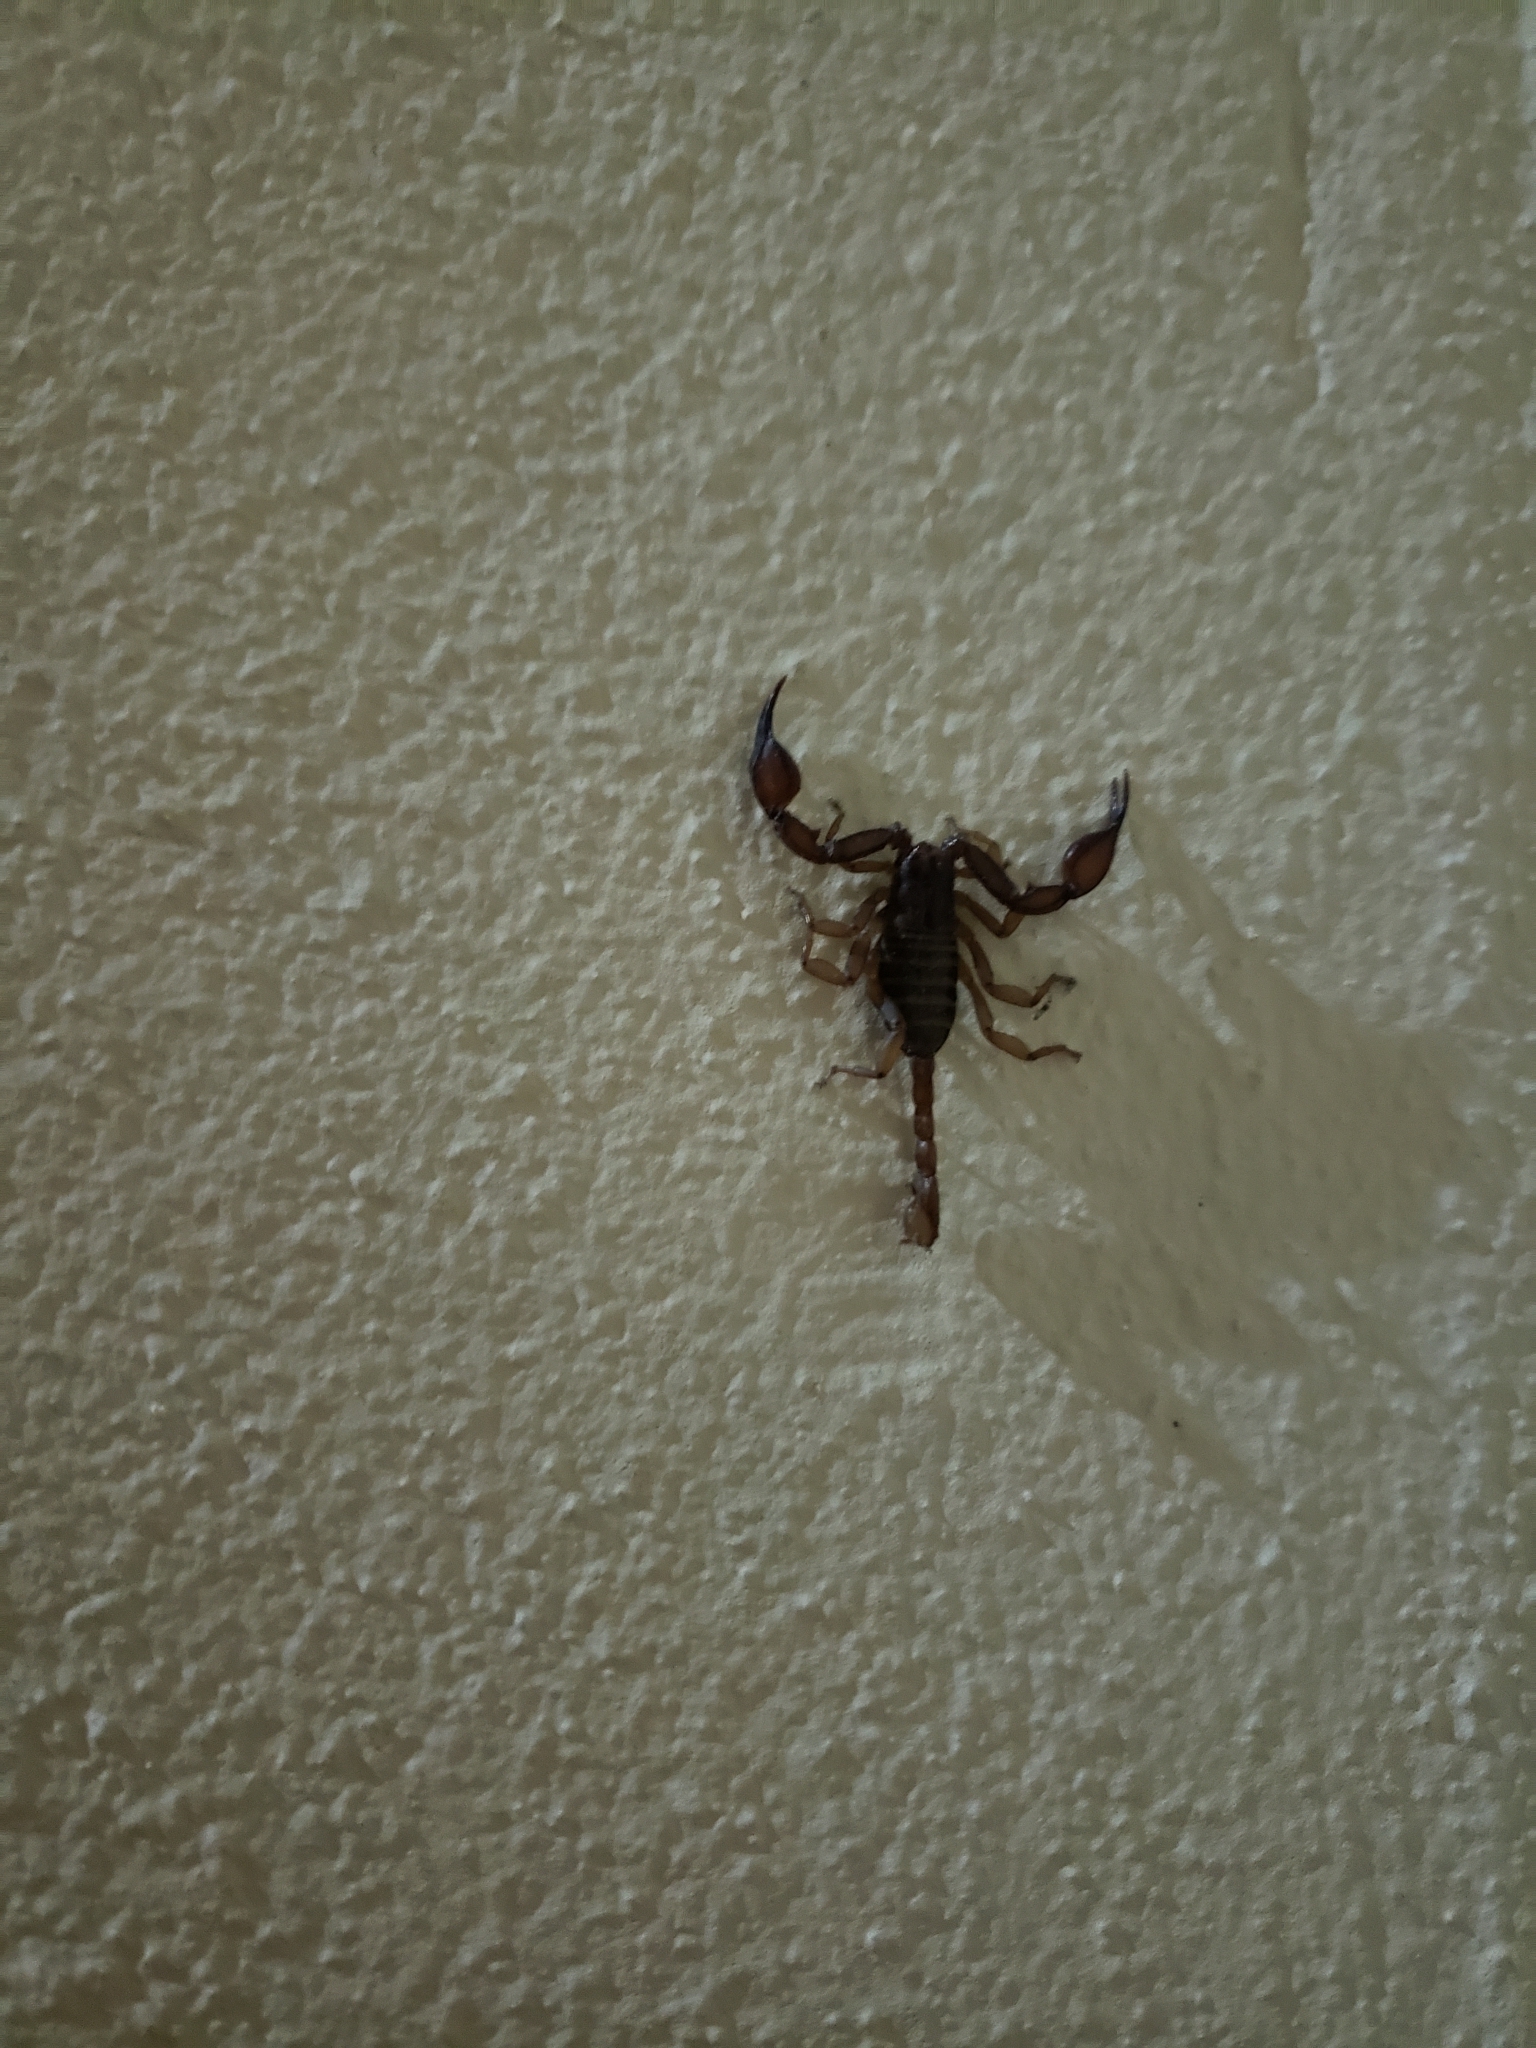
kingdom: Animalia
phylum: Arthropoda
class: Arachnida
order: Scorpiones
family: Euscorpiidae
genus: Euscorpius
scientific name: Euscorpius aquilejensis
